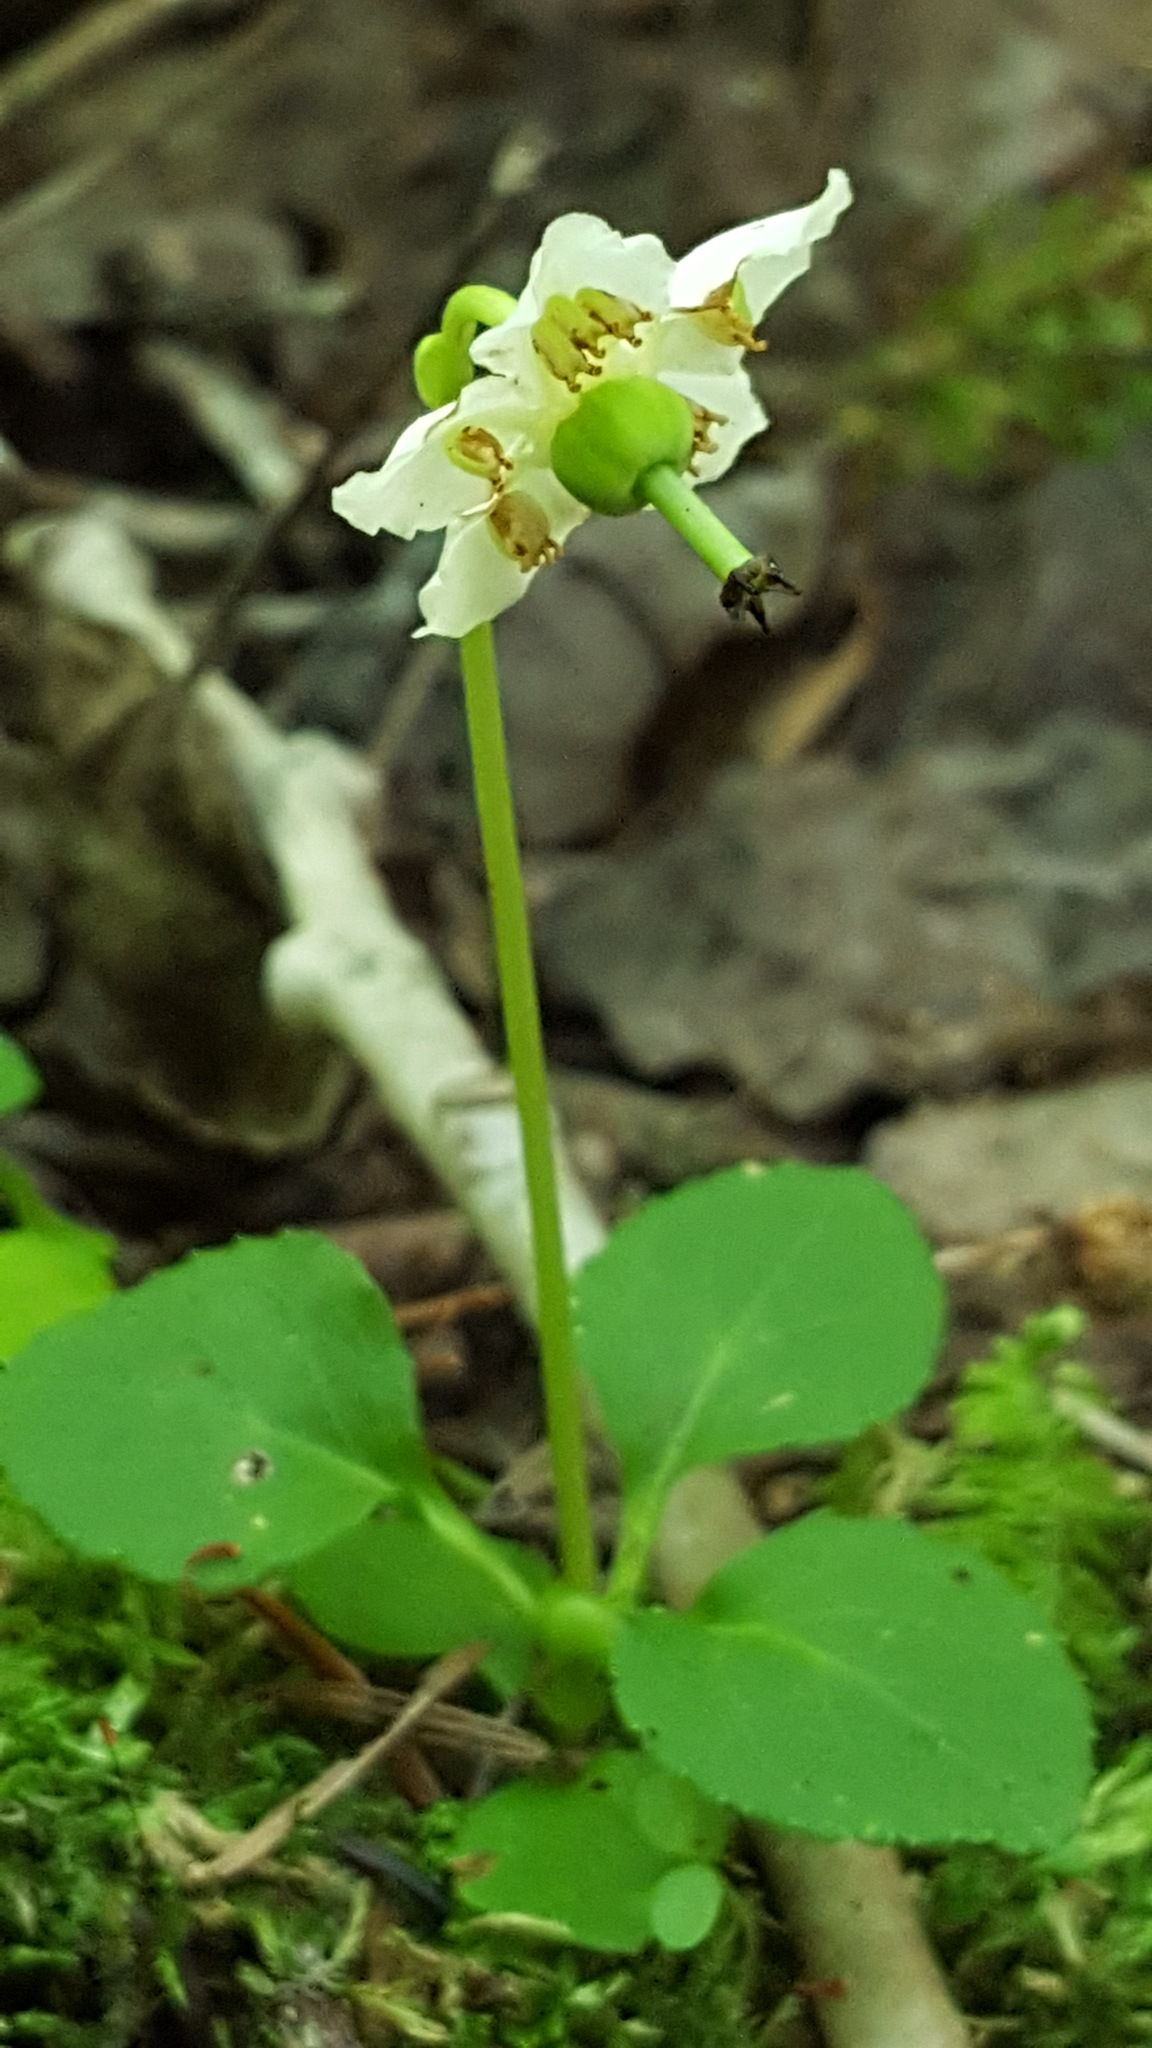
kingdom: Plantae
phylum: Tracheophyta
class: Magnoliopsida
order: Ericales
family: Ericaceae
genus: Moneses
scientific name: Moneses uniflora
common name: One-flowered wintergreen
